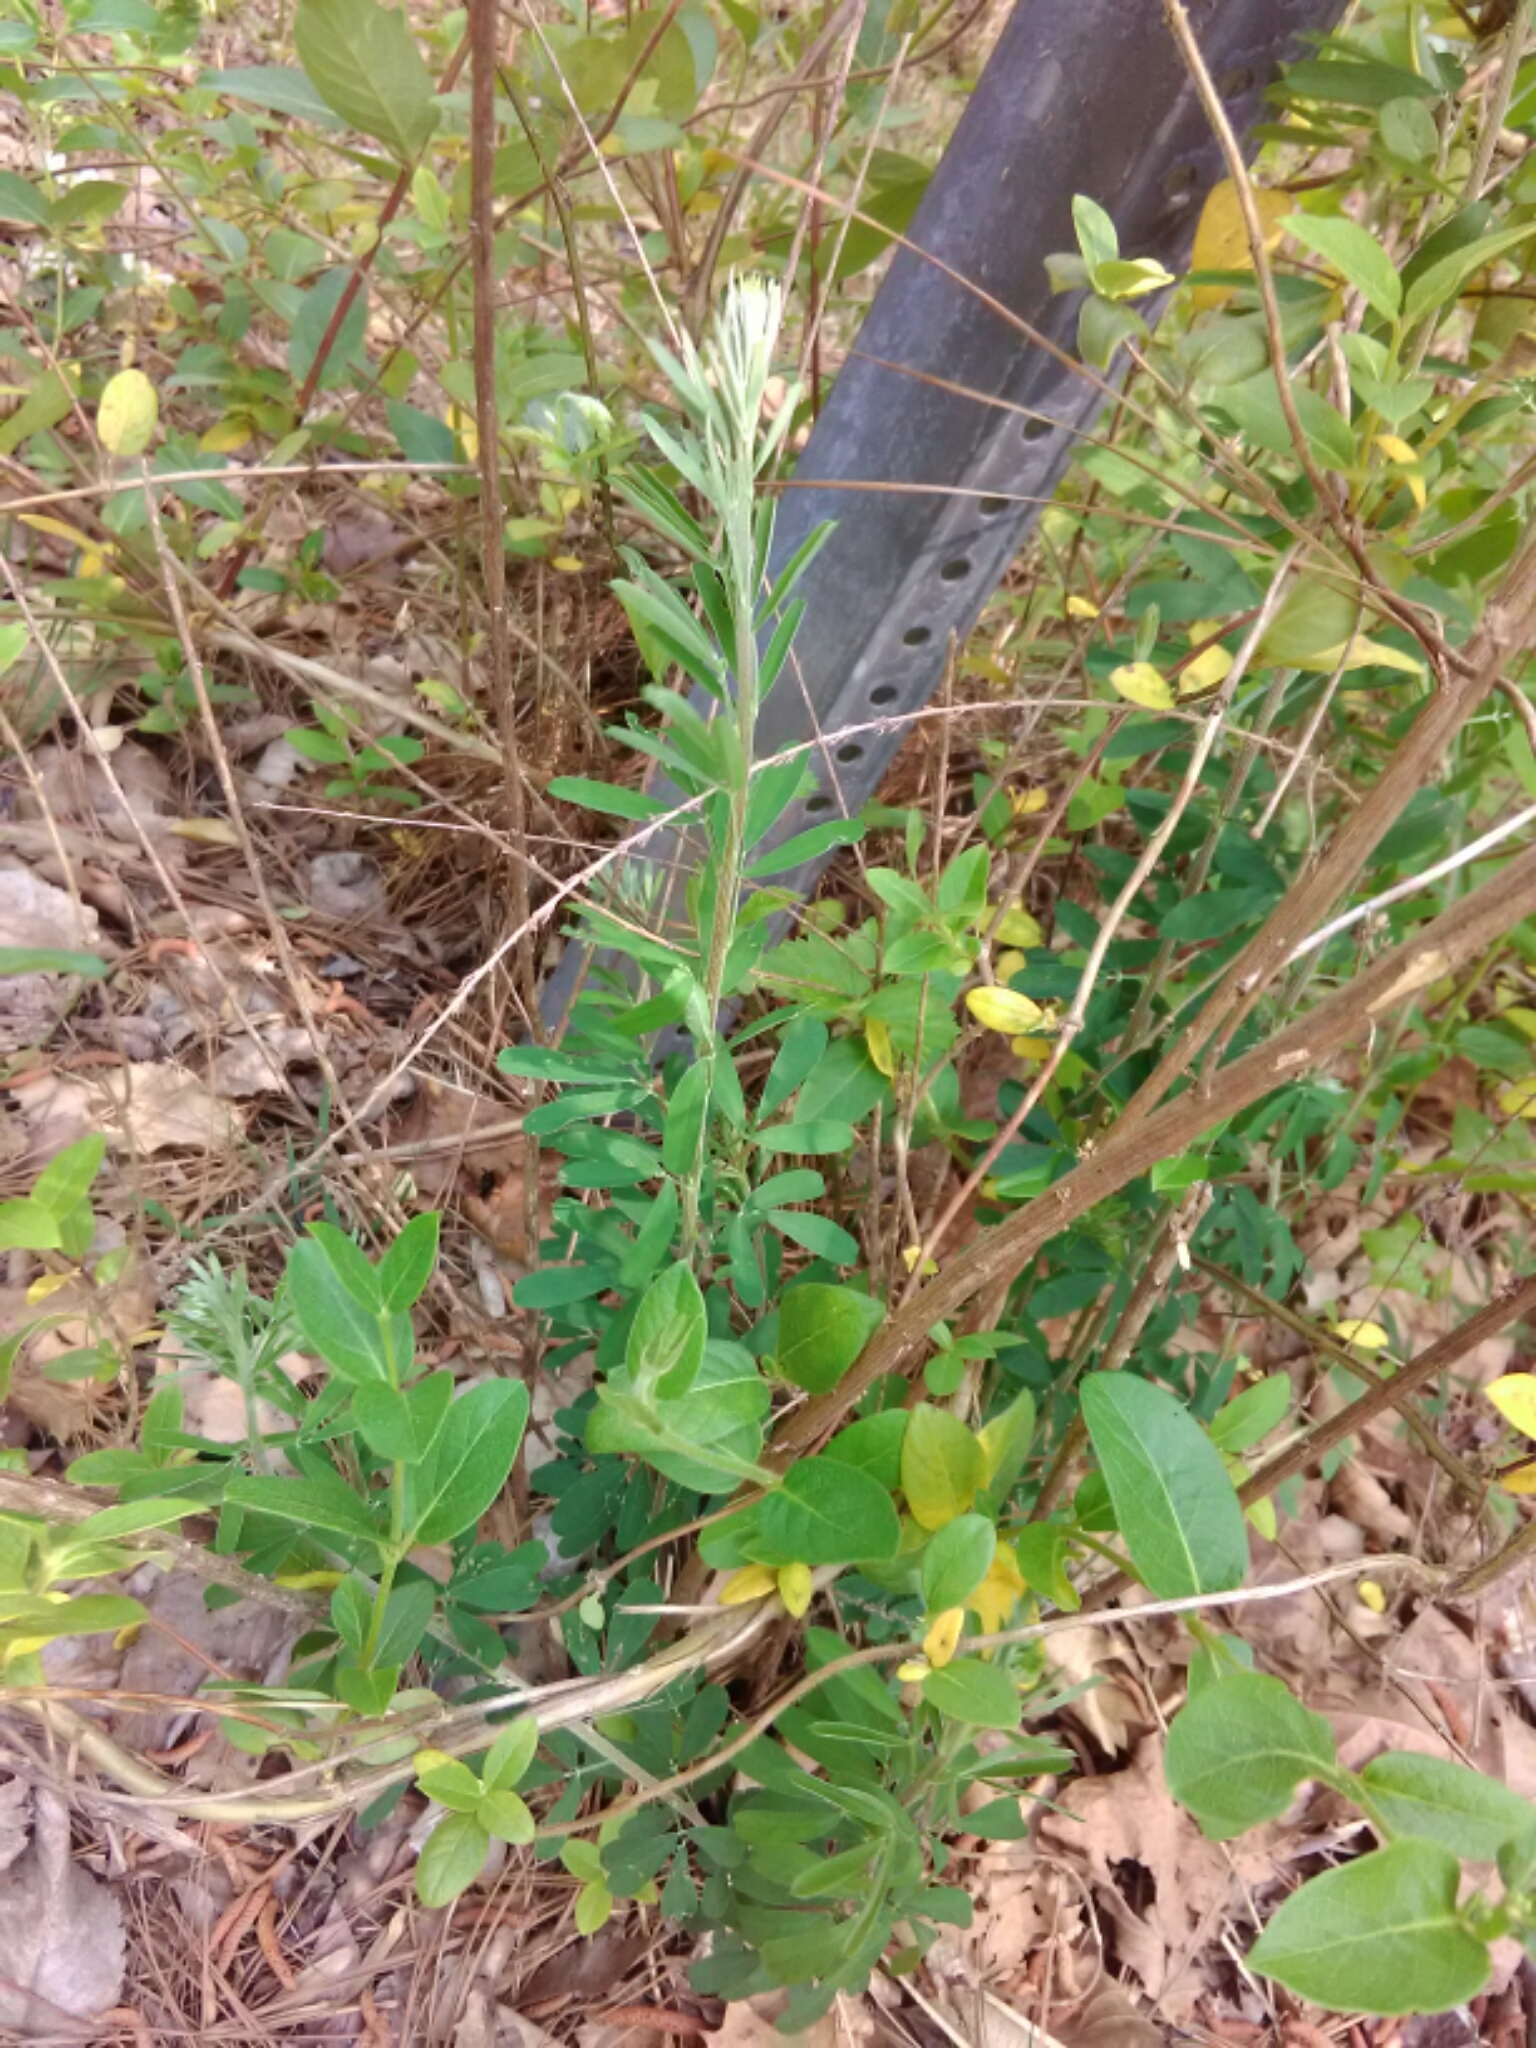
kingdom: Plantae
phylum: Tracheophyta
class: Magnoliopsida
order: Fabales
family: Fabaceae
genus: Lespedeza
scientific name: Lespedeza cuneata
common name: Chinese bush-clover
